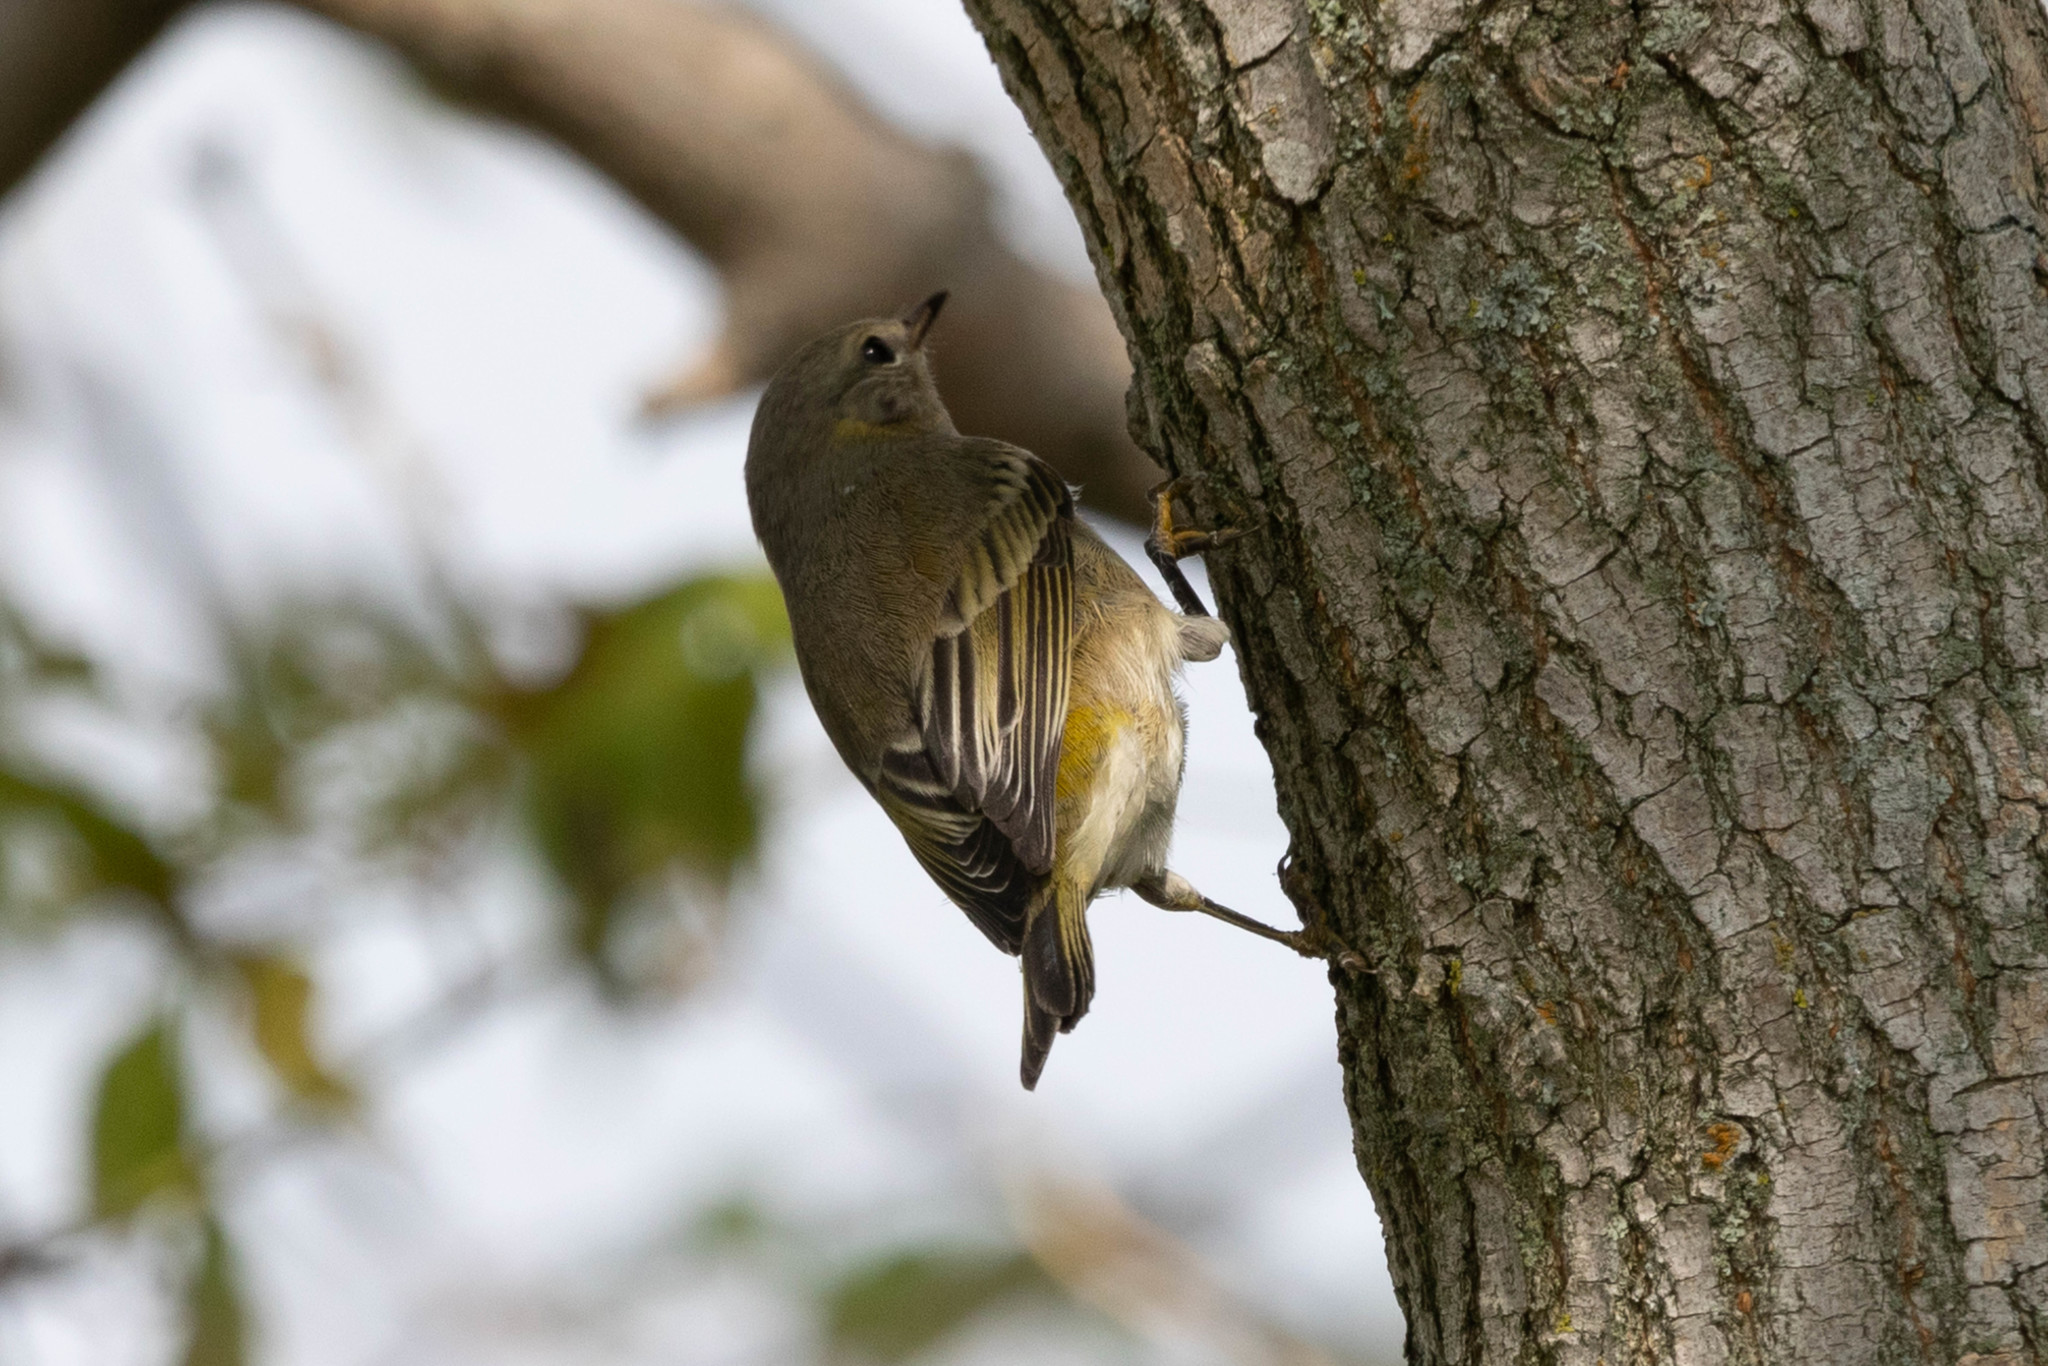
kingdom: Animalia
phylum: Chordata
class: Aves
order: Passeriformes
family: Parulidae
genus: Setophaga
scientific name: Setophaga tigrina
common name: Cape may warbler
